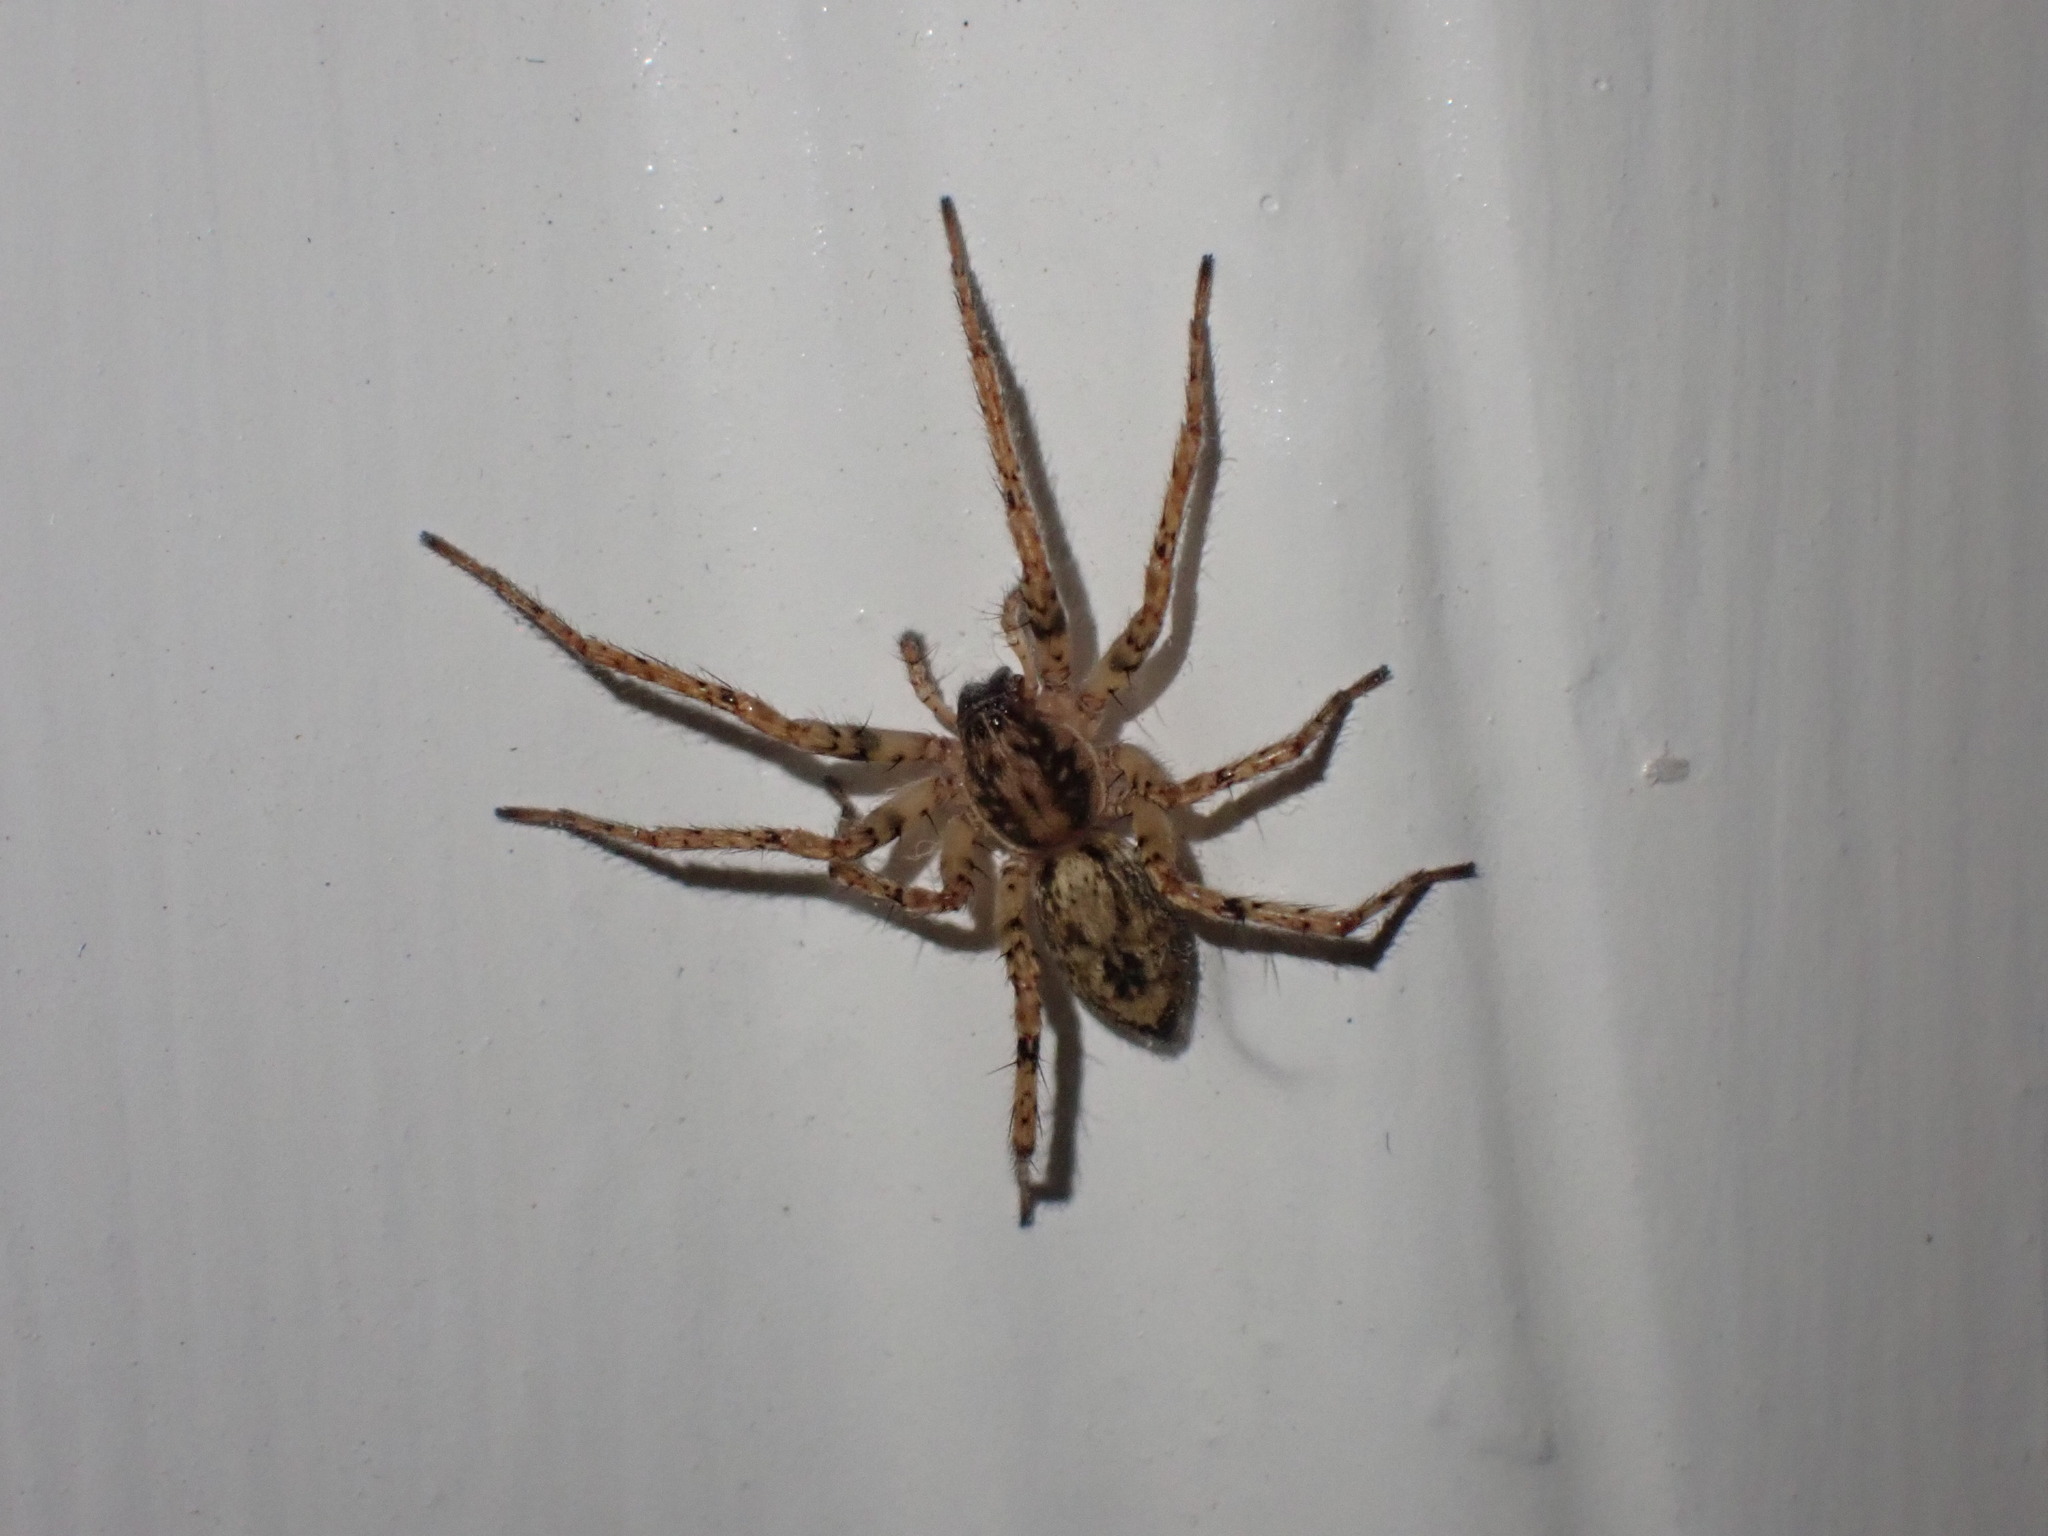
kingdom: Animalia
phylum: Arthropoda
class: Arachnida
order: Araneae
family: Anyphaenidae
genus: Anyphaena
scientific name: Anyphaena accentuata
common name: Buzzing spider
